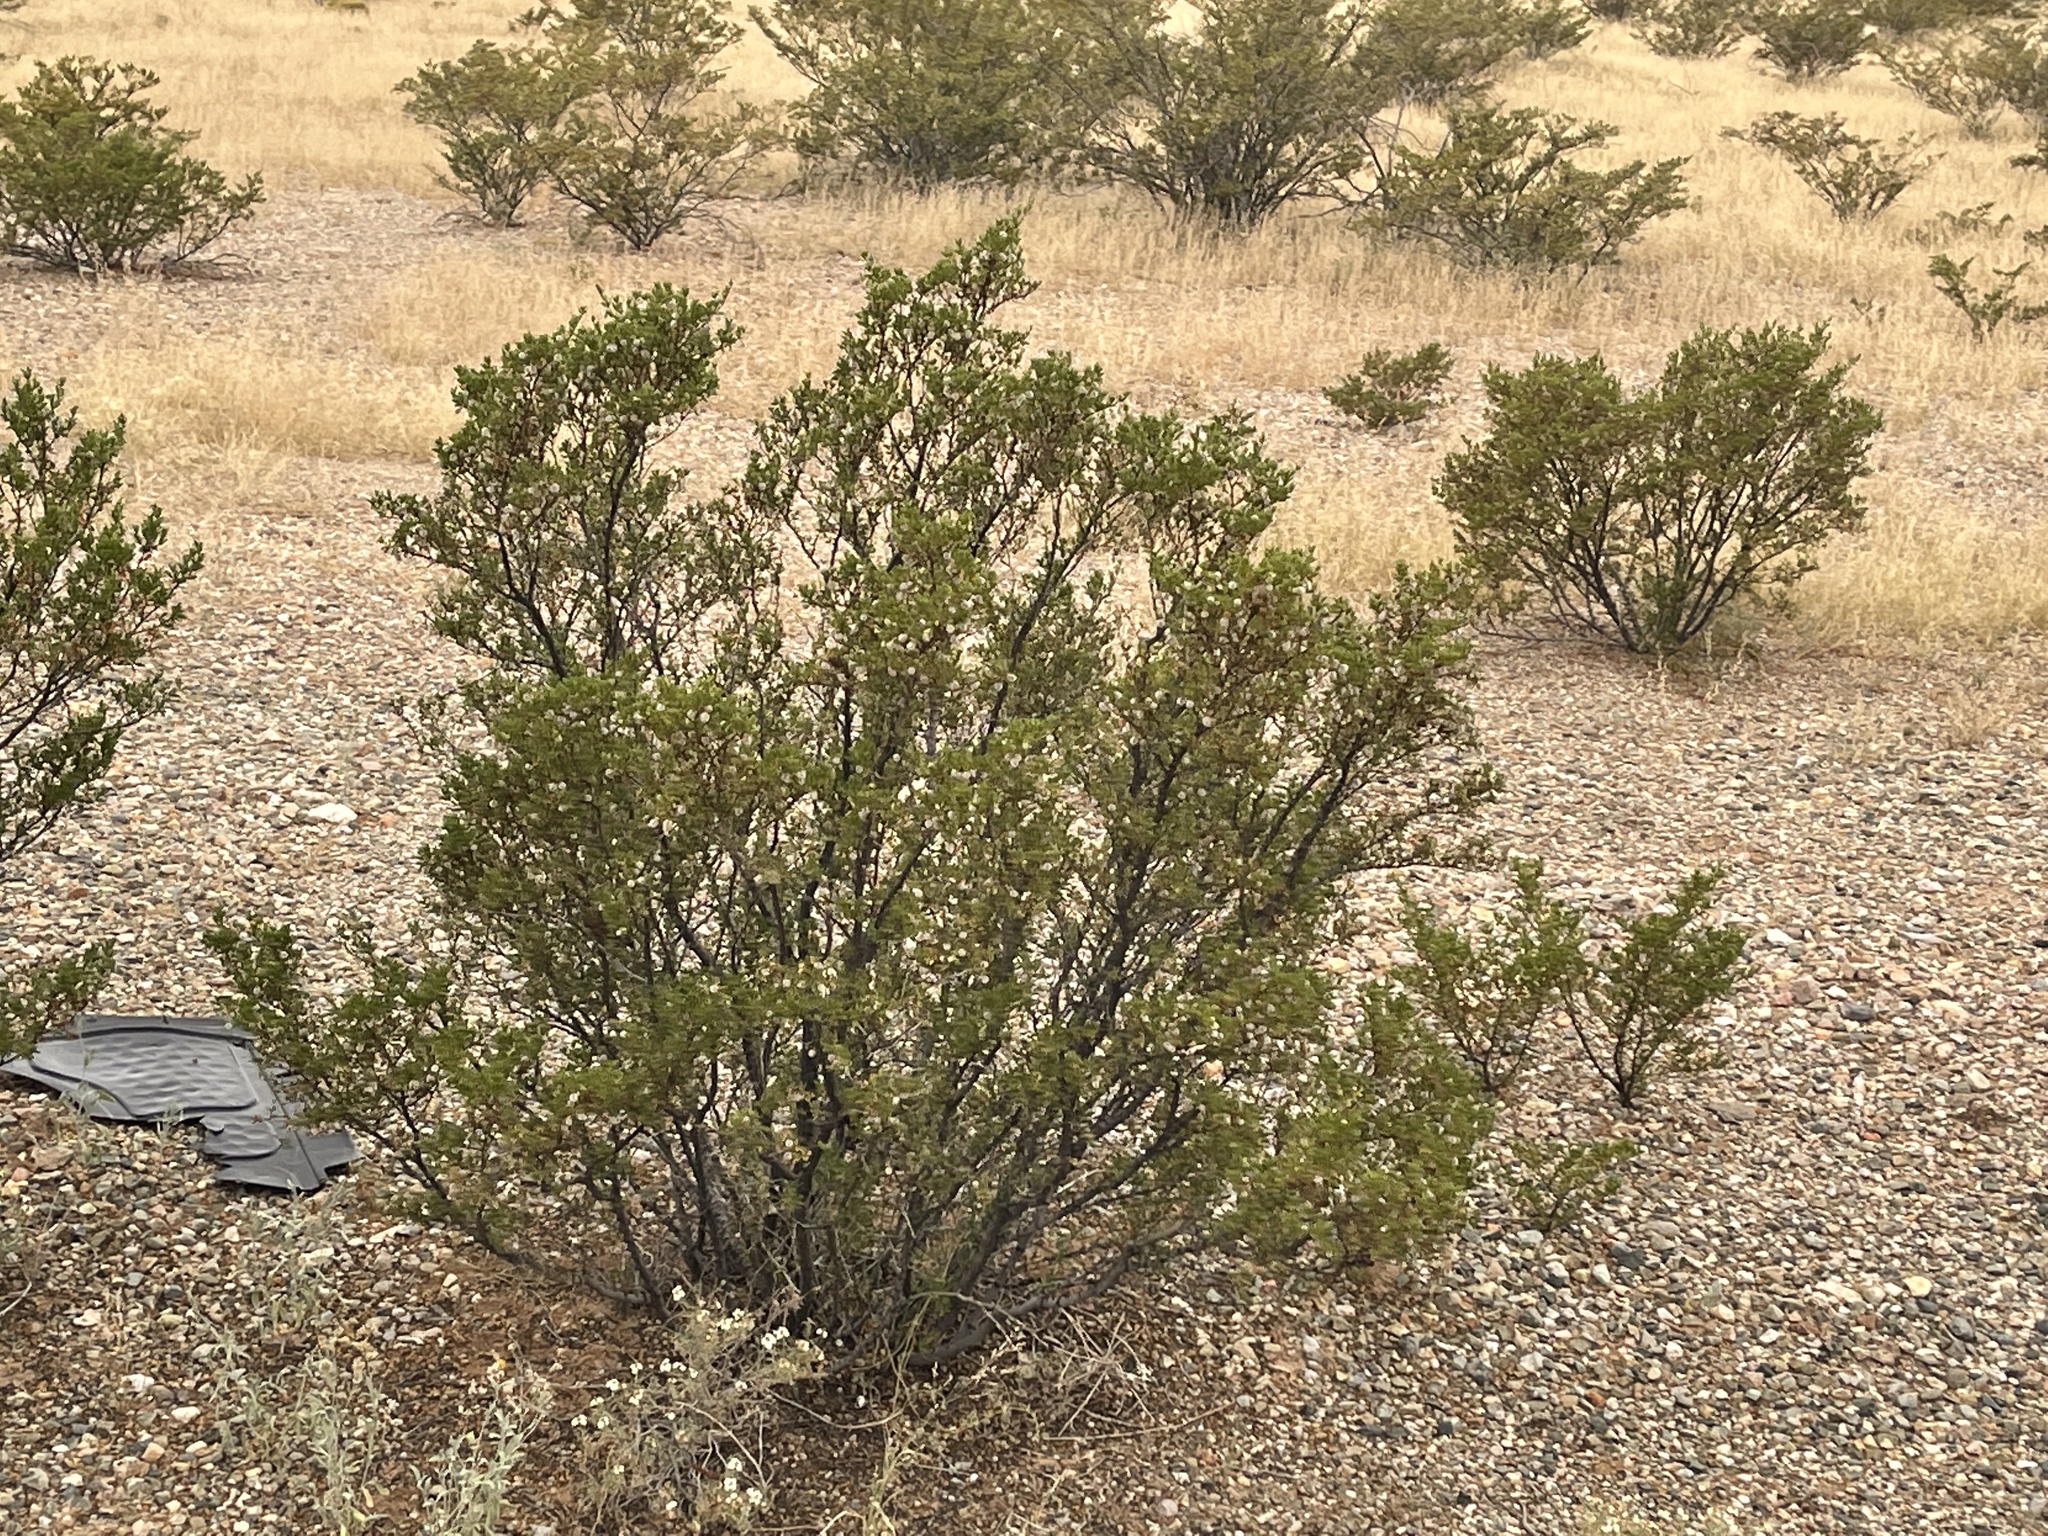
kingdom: Plantae
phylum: Tracheophyta
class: Magnoliopsida
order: Zygophyllales
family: Zygophyllaceae
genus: Larrea
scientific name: Larrea tridentata
